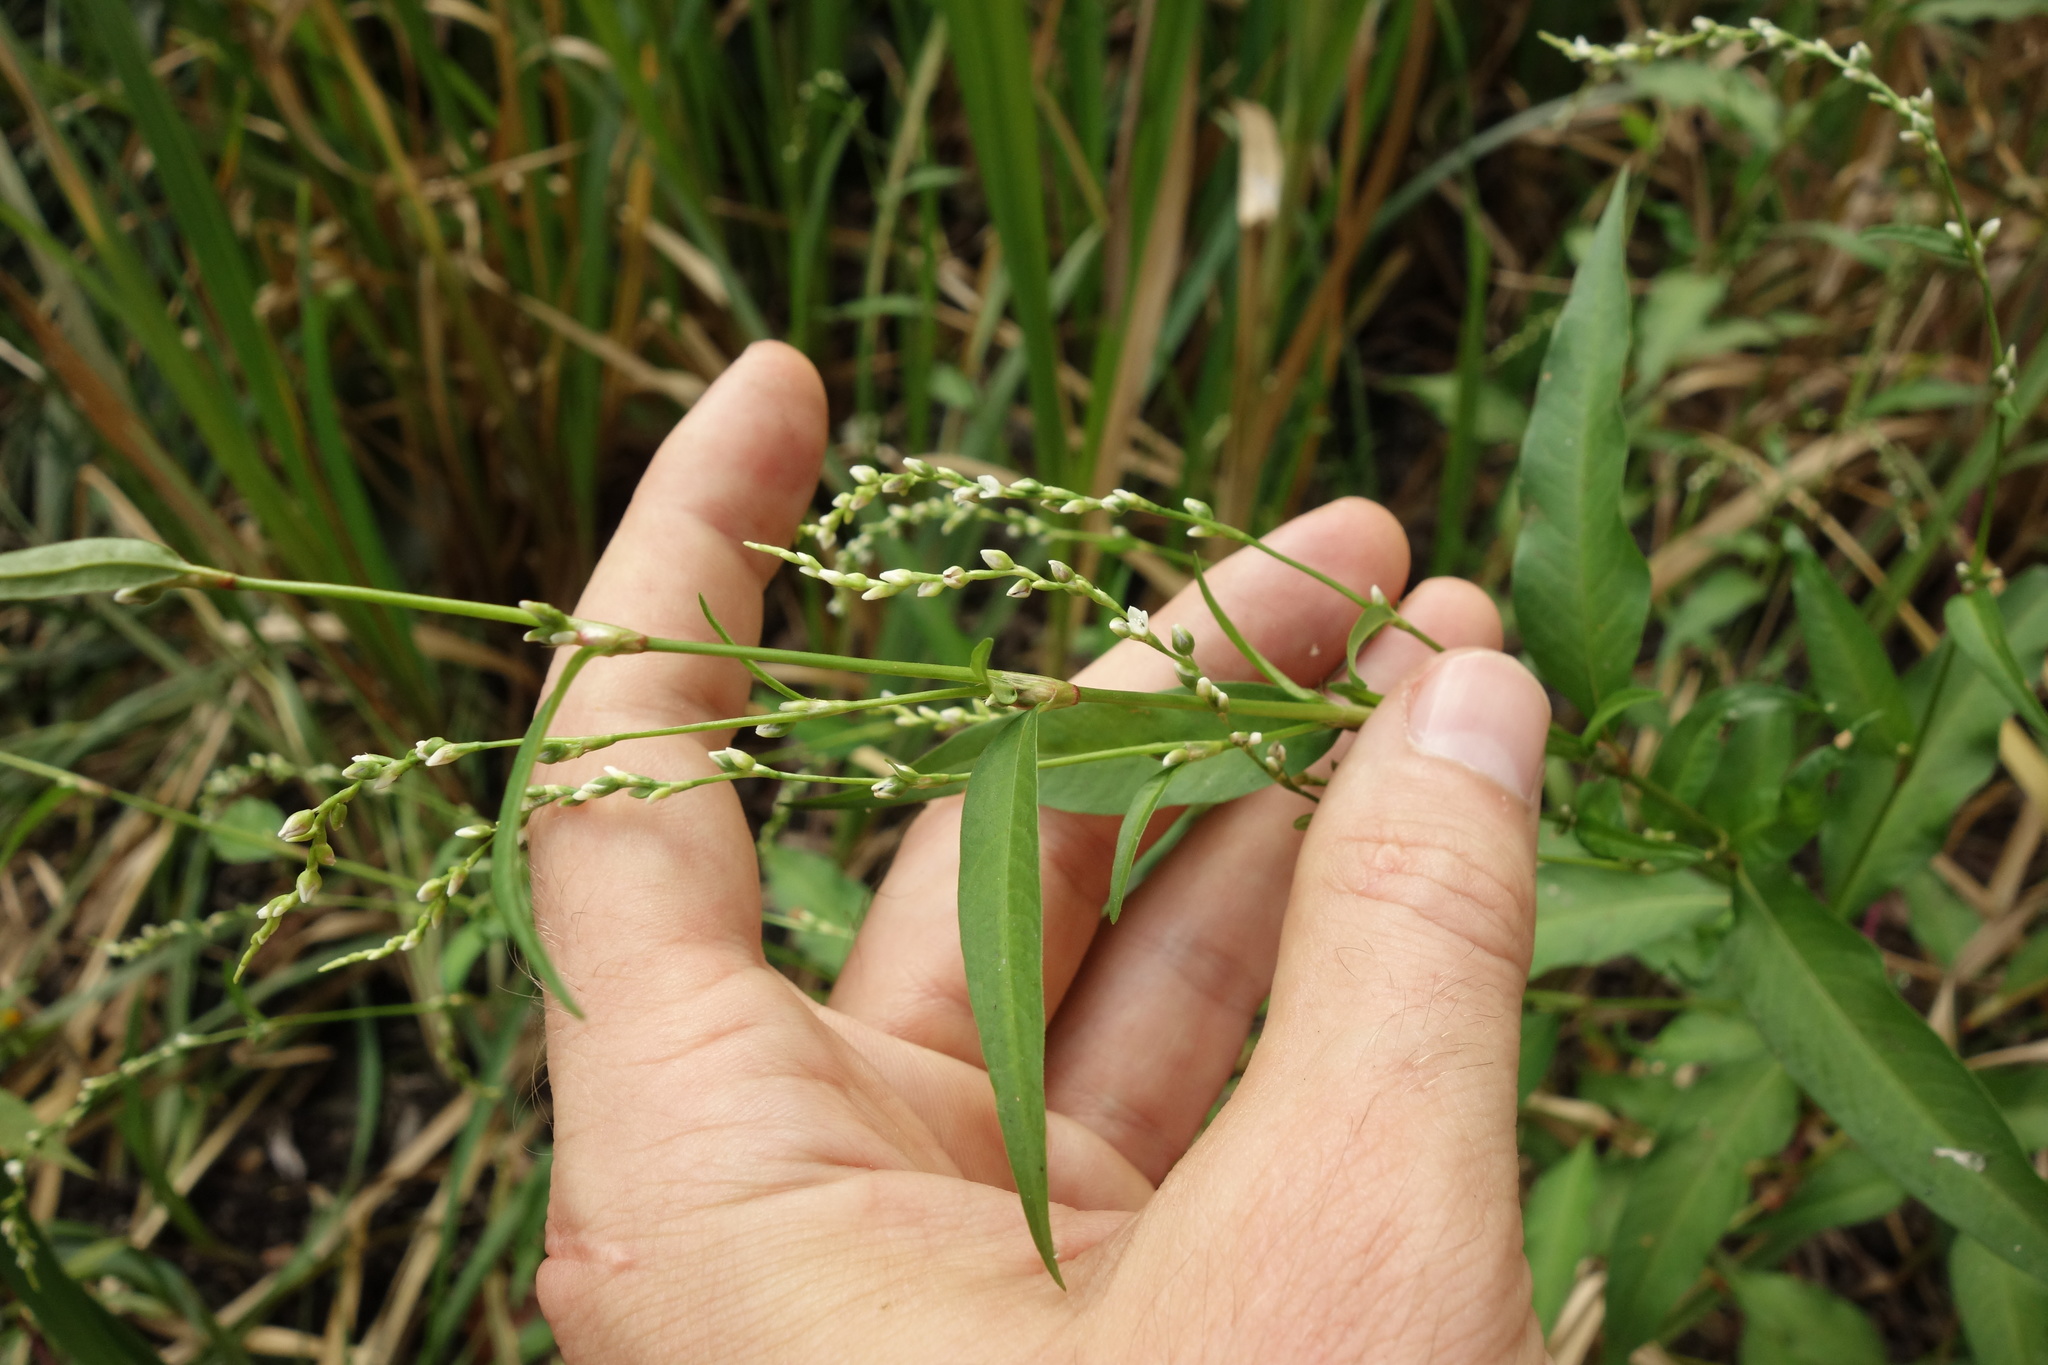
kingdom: Plantae
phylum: Tracheophyta
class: Magnoliopsida
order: Caryophyllales
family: Polygonaceae
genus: Persicaria
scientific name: Persicaria hydropiper
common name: Water-pepper
